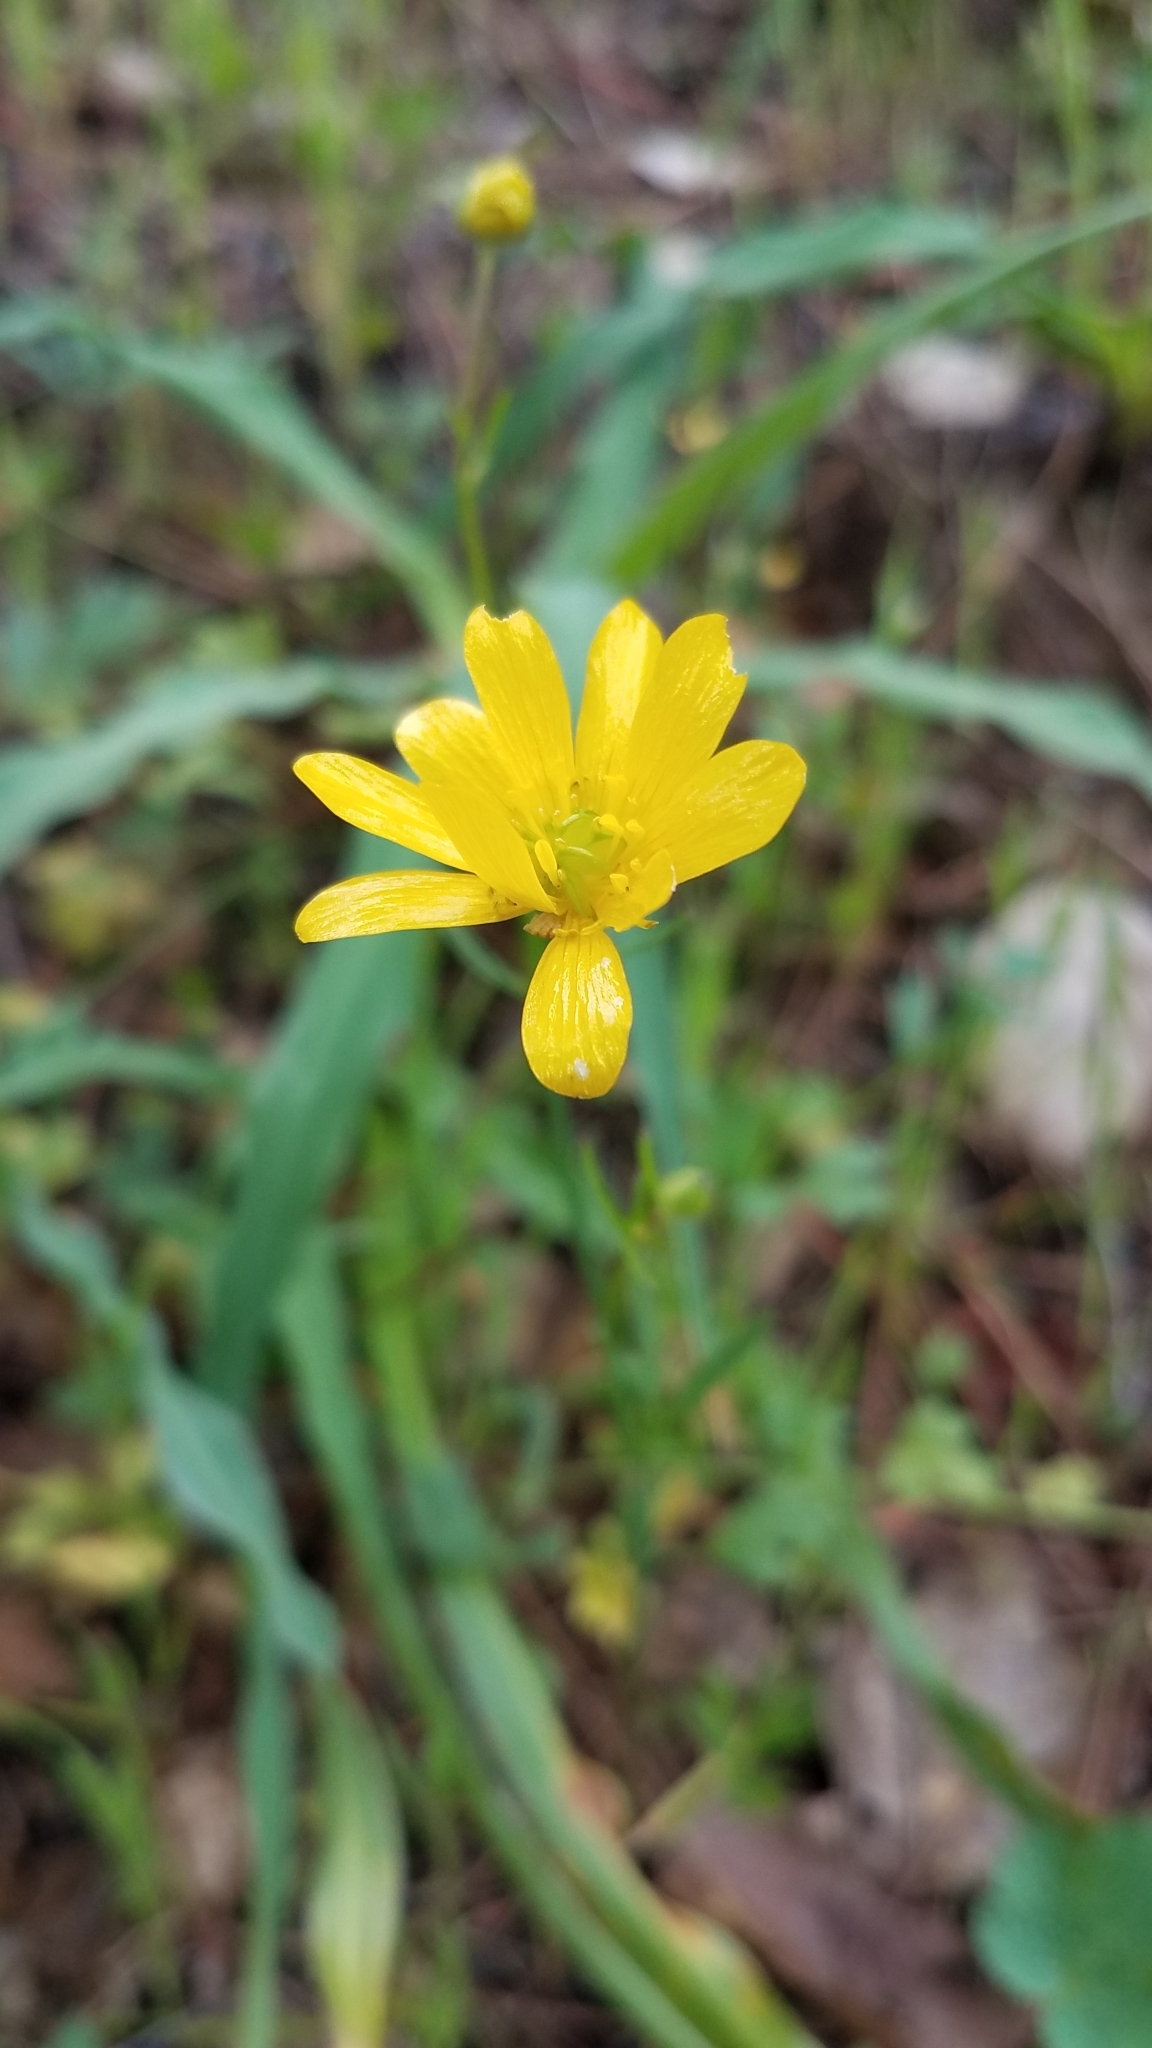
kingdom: Plantae
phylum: Tracheophyta
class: Magnoliopsida
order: Ranunculales
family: Ranunculaceae
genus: Ranunculus
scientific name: Ranunculus californicus
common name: California buttercup
